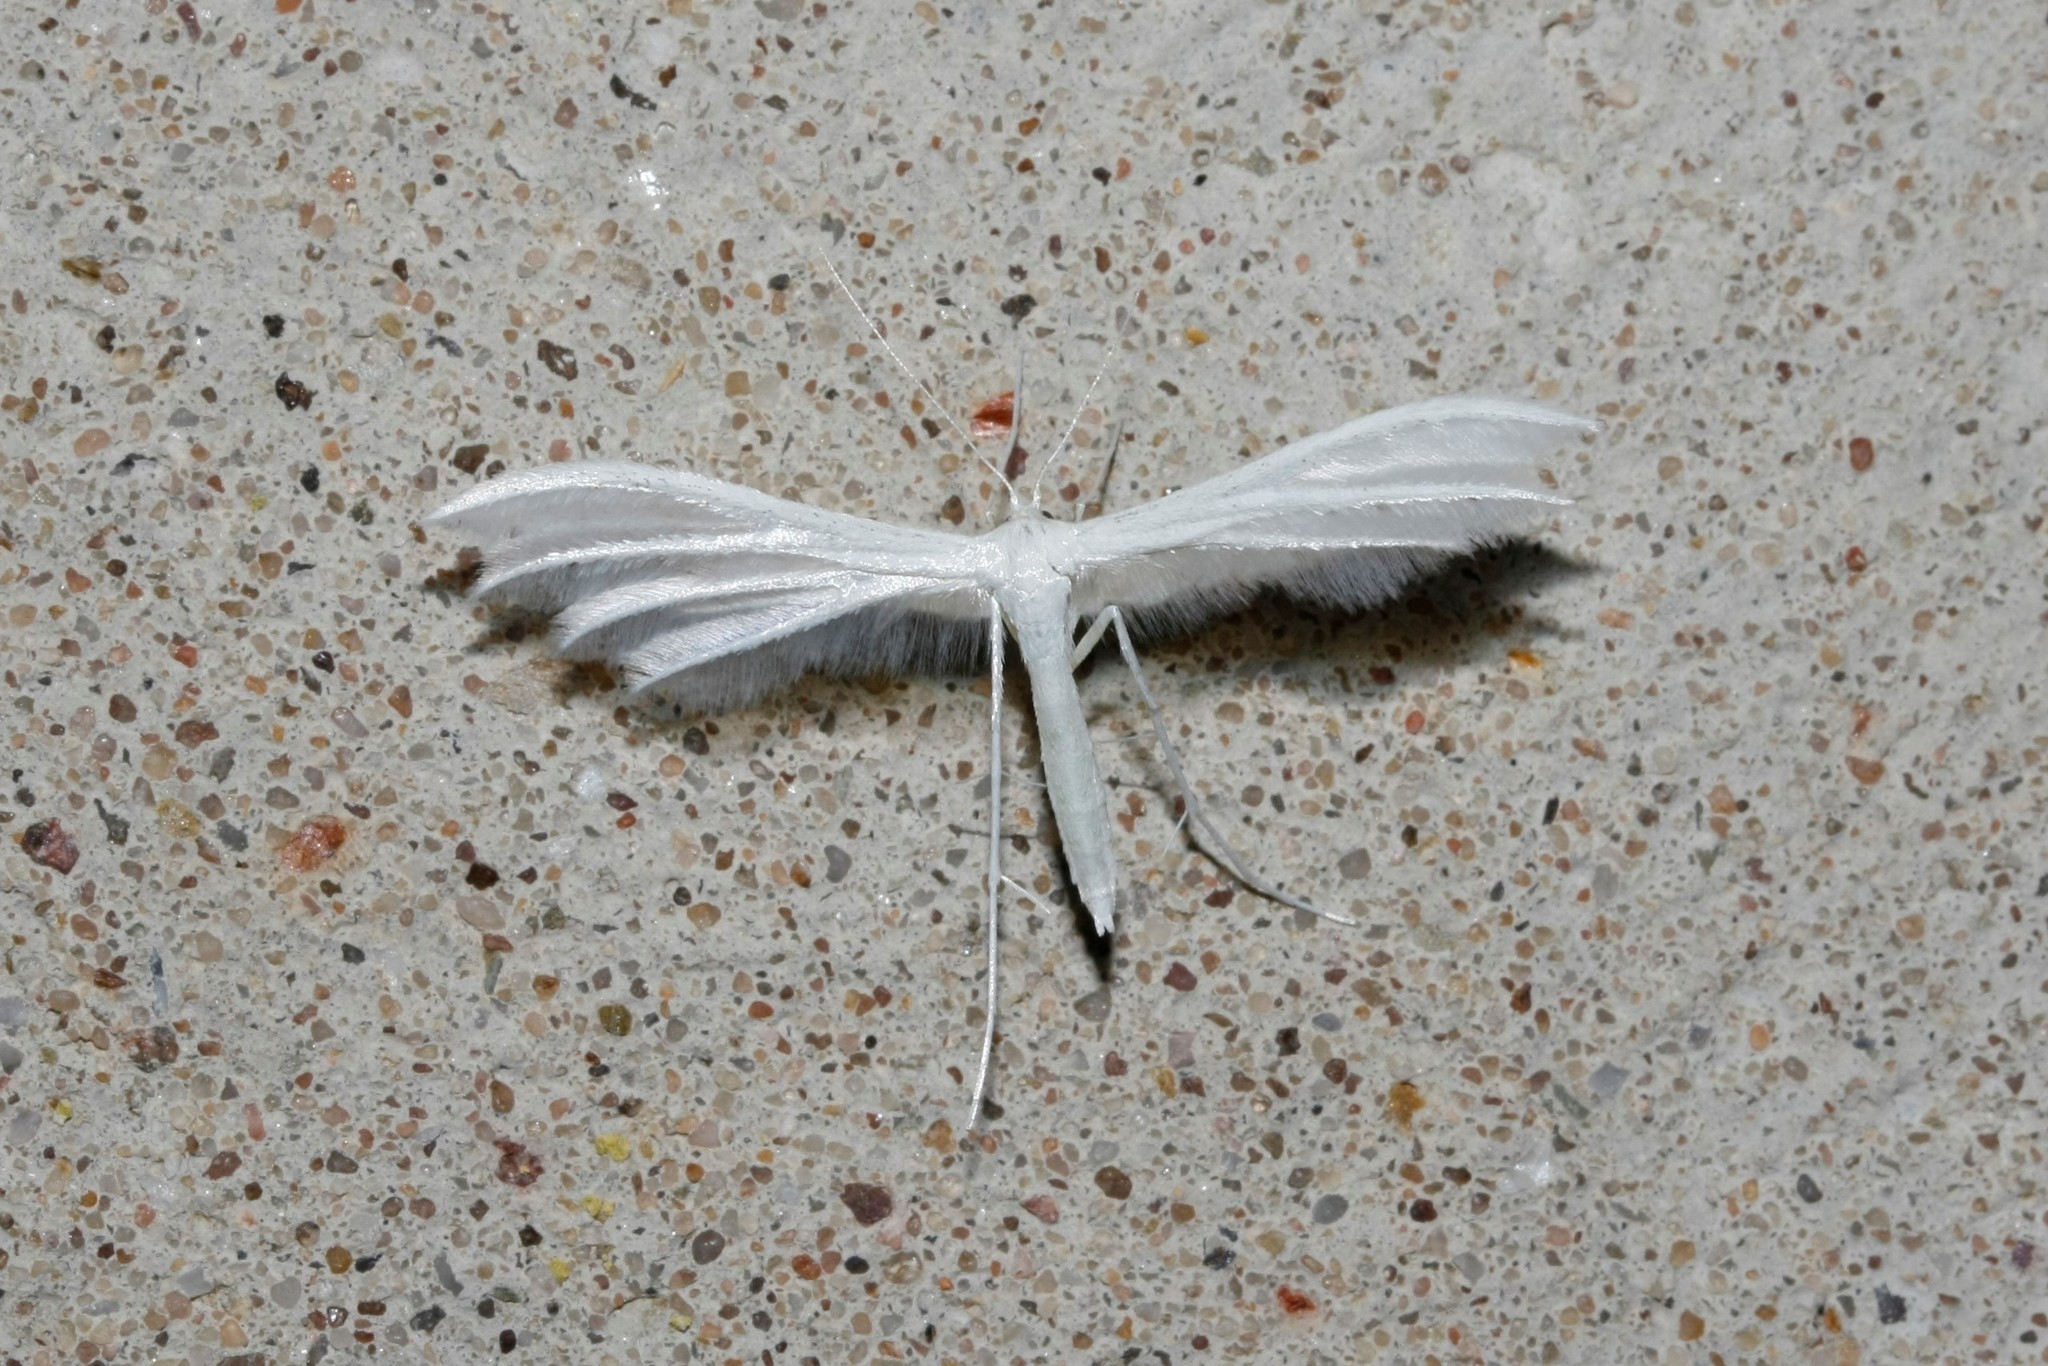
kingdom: Animalia
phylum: Arthropoda
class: Insecta
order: Lepidoptera
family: Pterophoridae
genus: Pterophorus
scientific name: Pterophorus pentadactyla
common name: White plume moth
